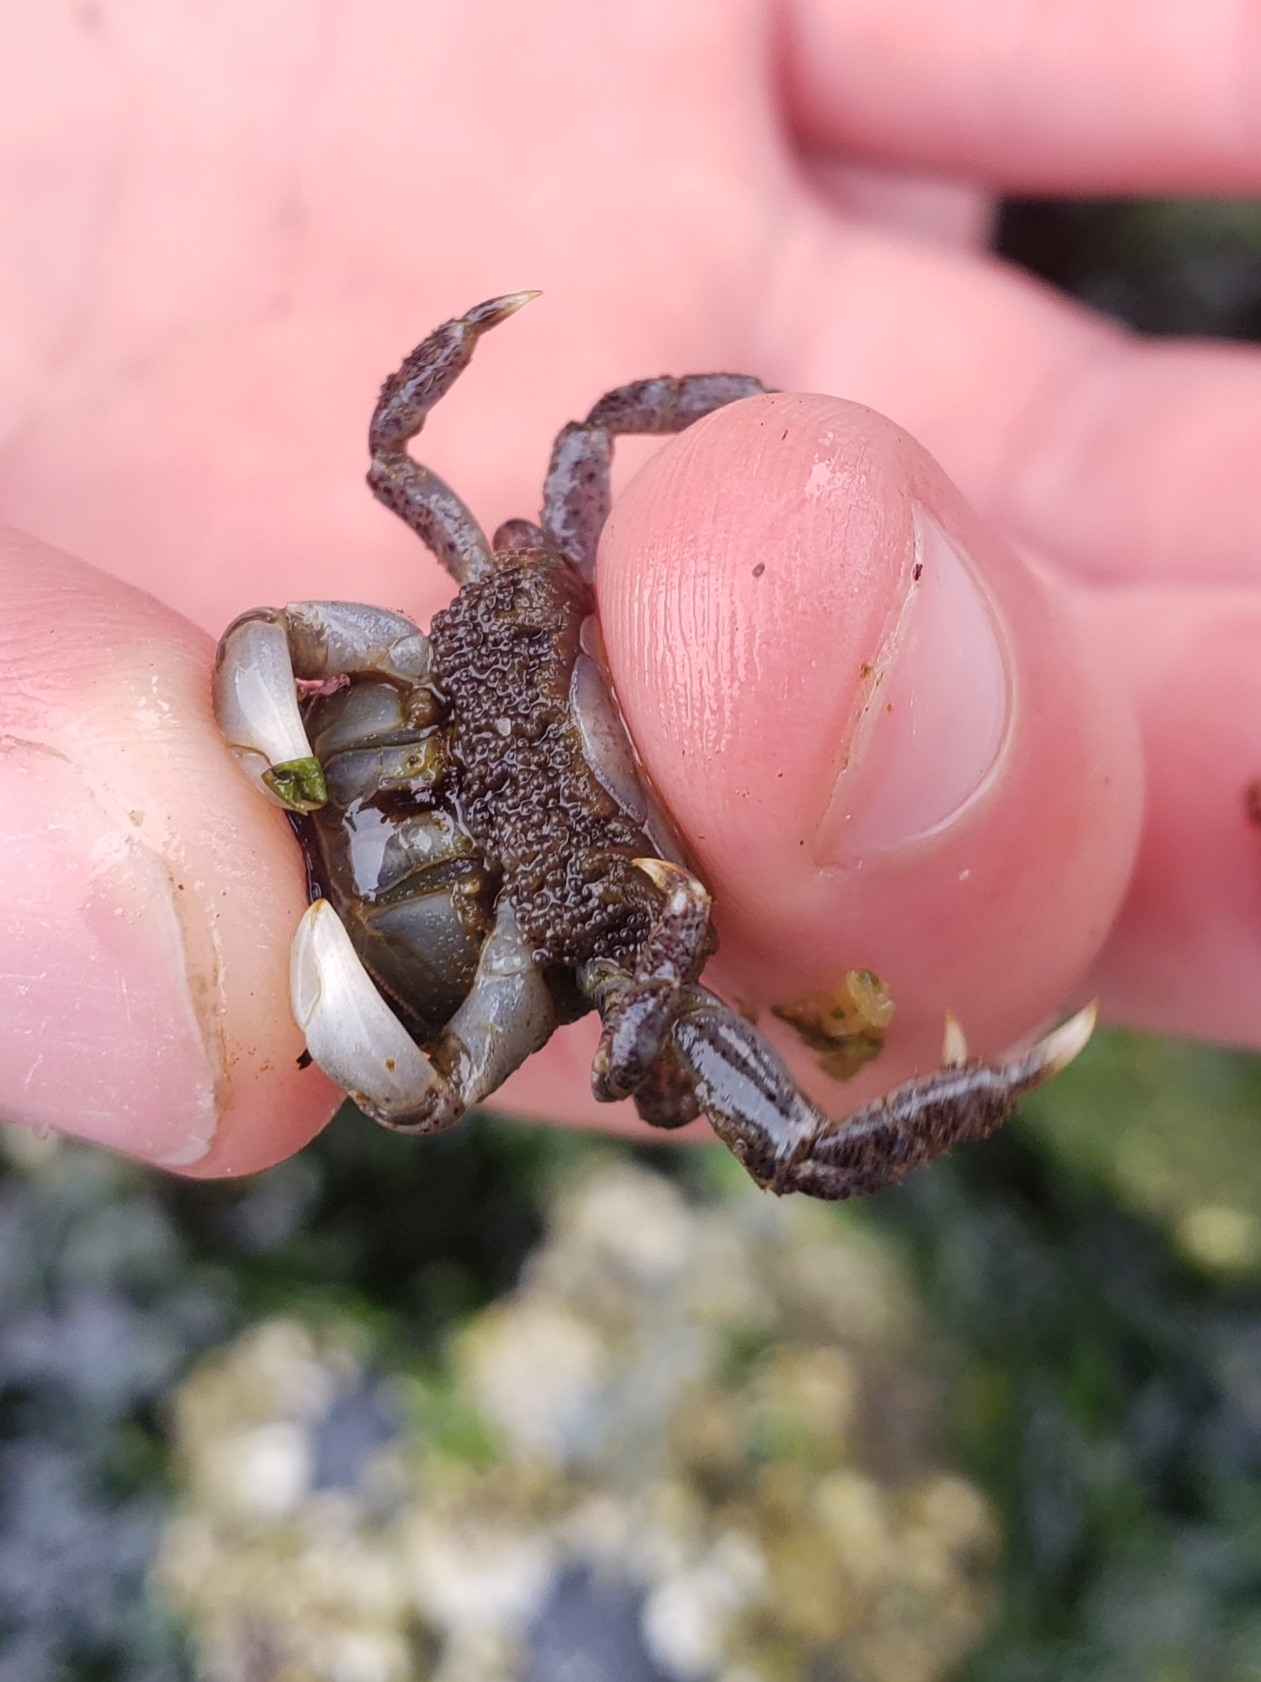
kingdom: Animalia
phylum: Arthropoda
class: Malacostraca
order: Decapoda
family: Varunidae
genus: Hemigrapsus
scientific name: Hemigrapsus oregonensis
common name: Yellow shore crab
